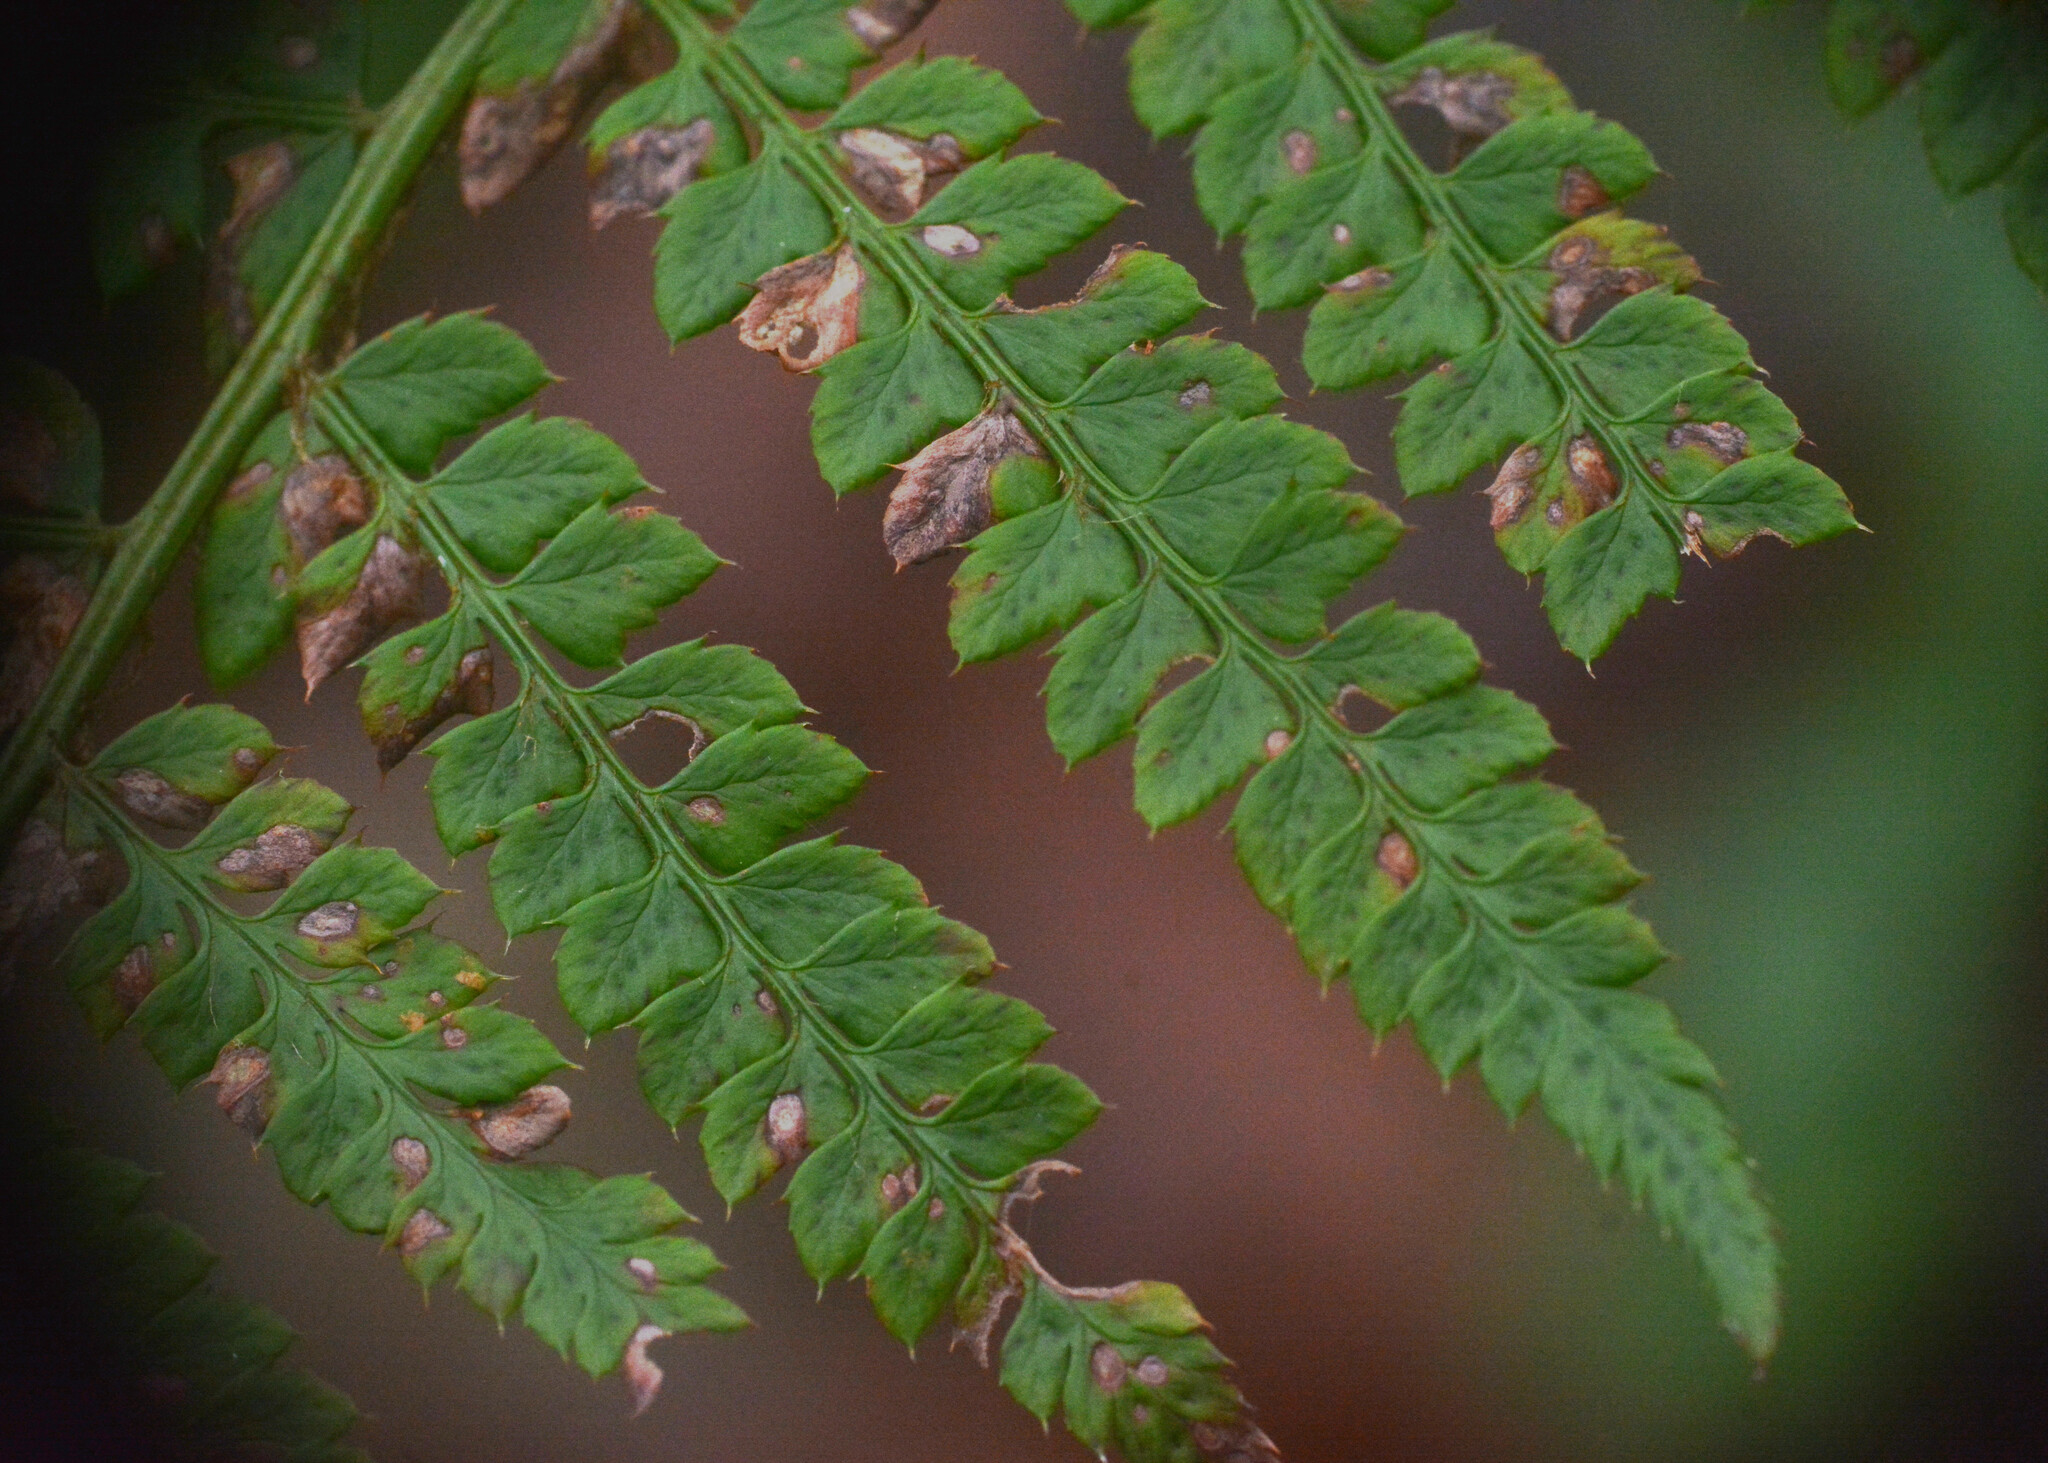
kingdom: Plantae
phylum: Tracheophyta
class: Polypodiopsida
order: Polypodiales
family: Dryopteridaceae
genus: Polystichum
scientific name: Polystichum setiferum
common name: Soft shield-fern
